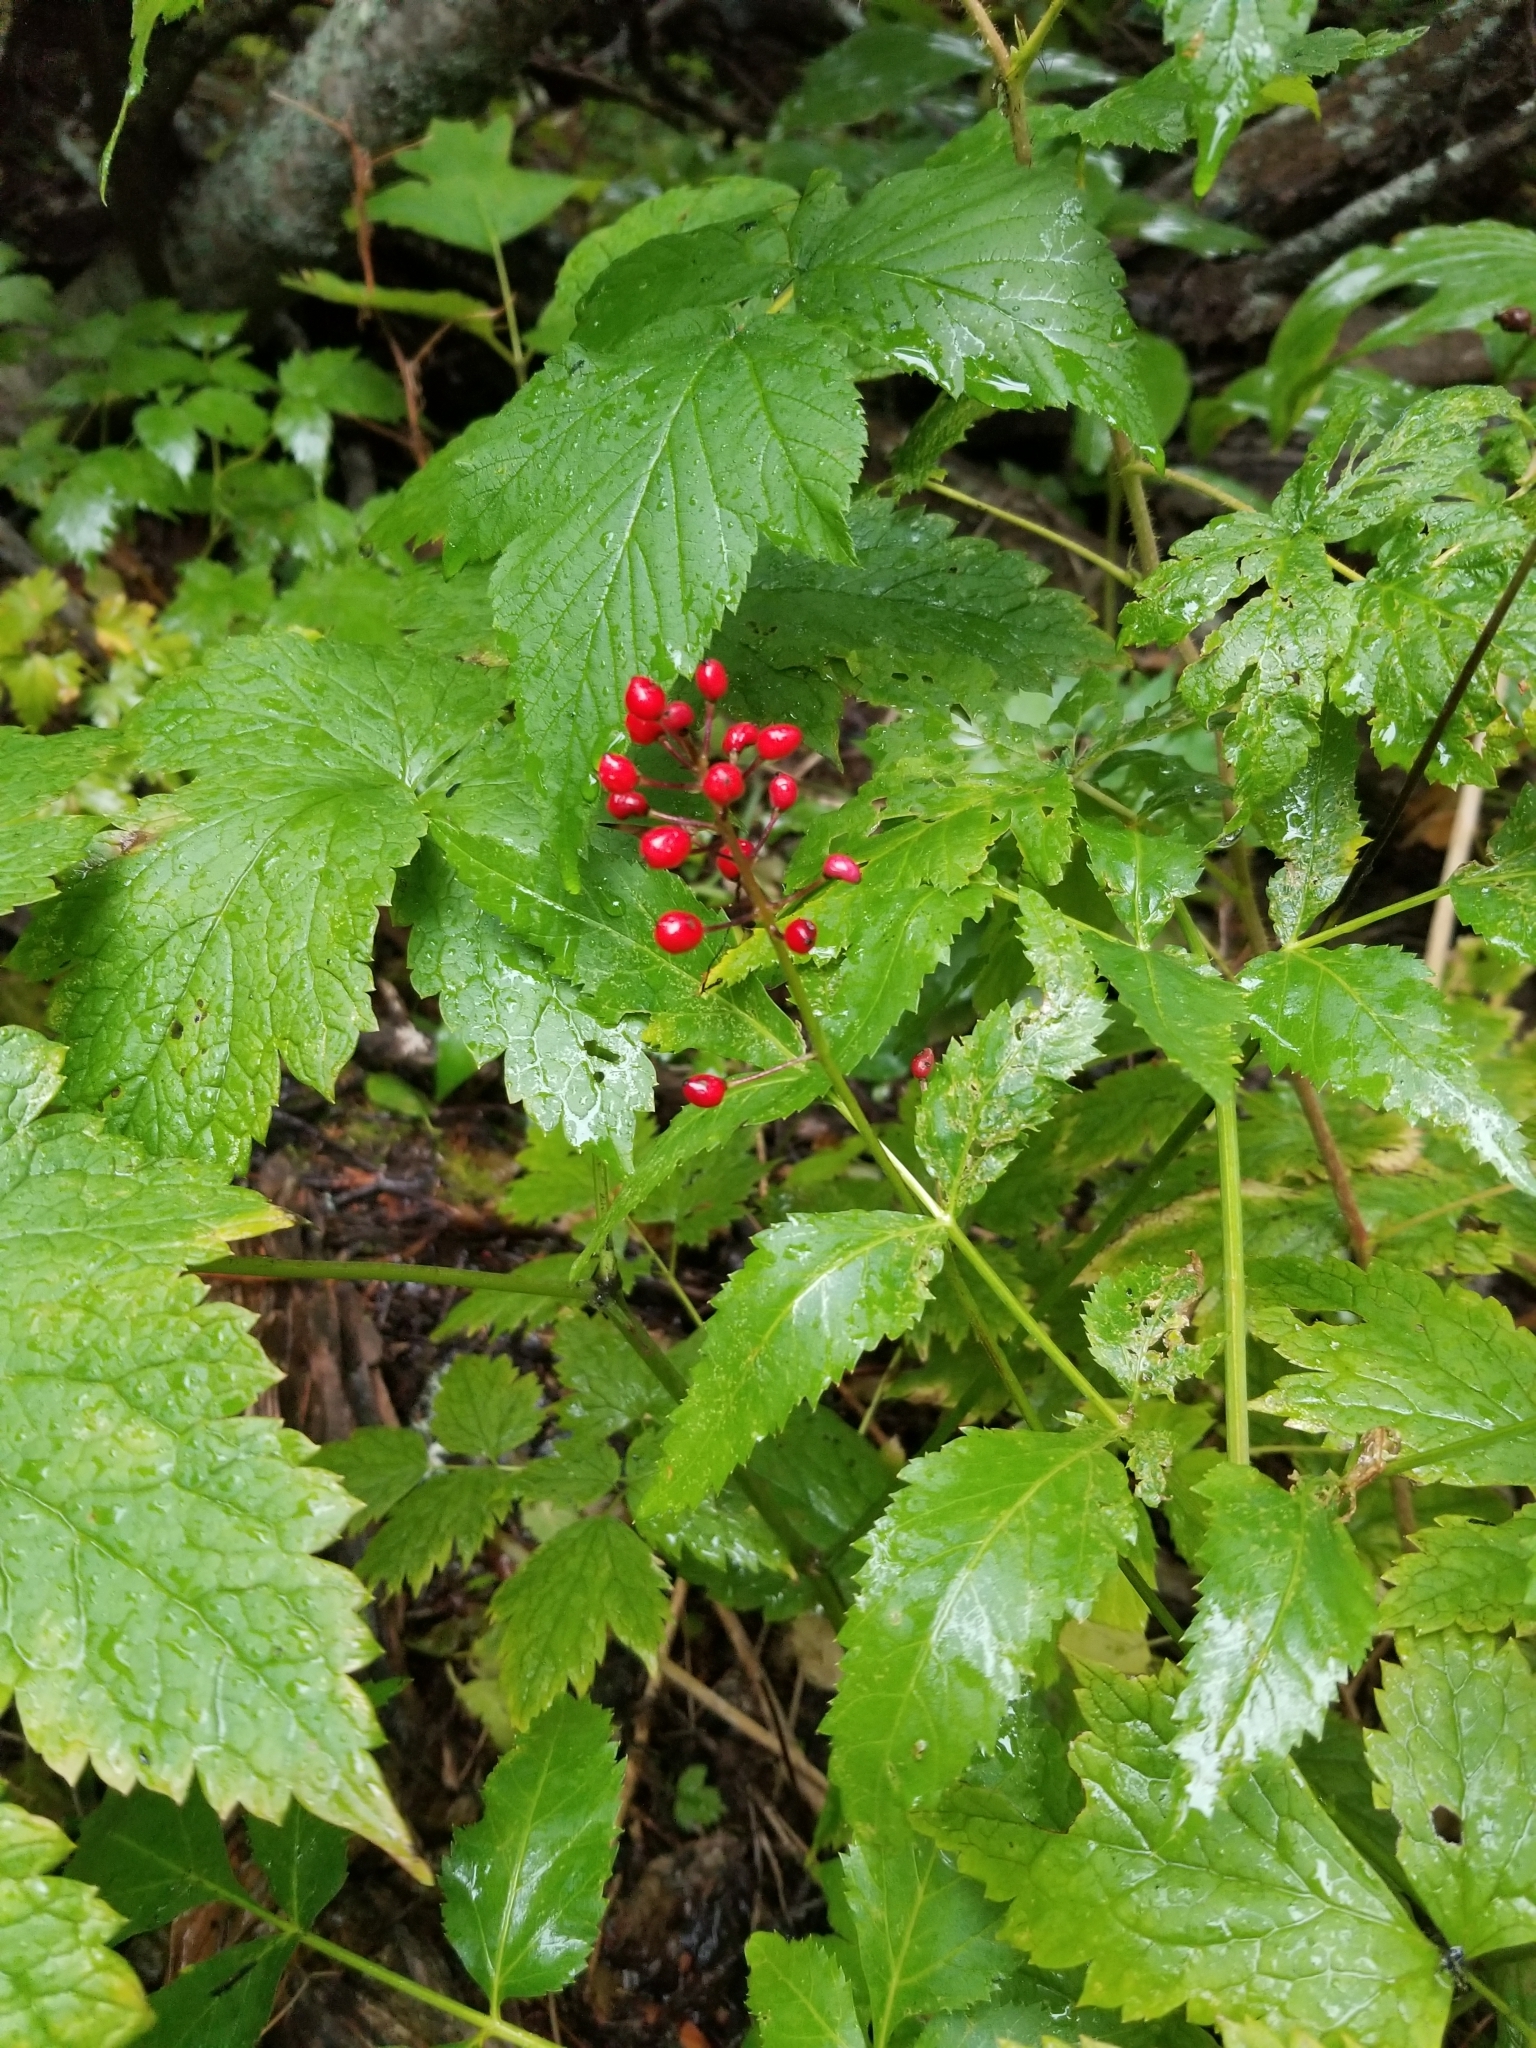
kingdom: Plantae
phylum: Tracheophyta
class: Magnoliopsida
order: Ranunculales
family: Ranunculaceae
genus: Actaea
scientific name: Actaea rubra
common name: Red baneberry
